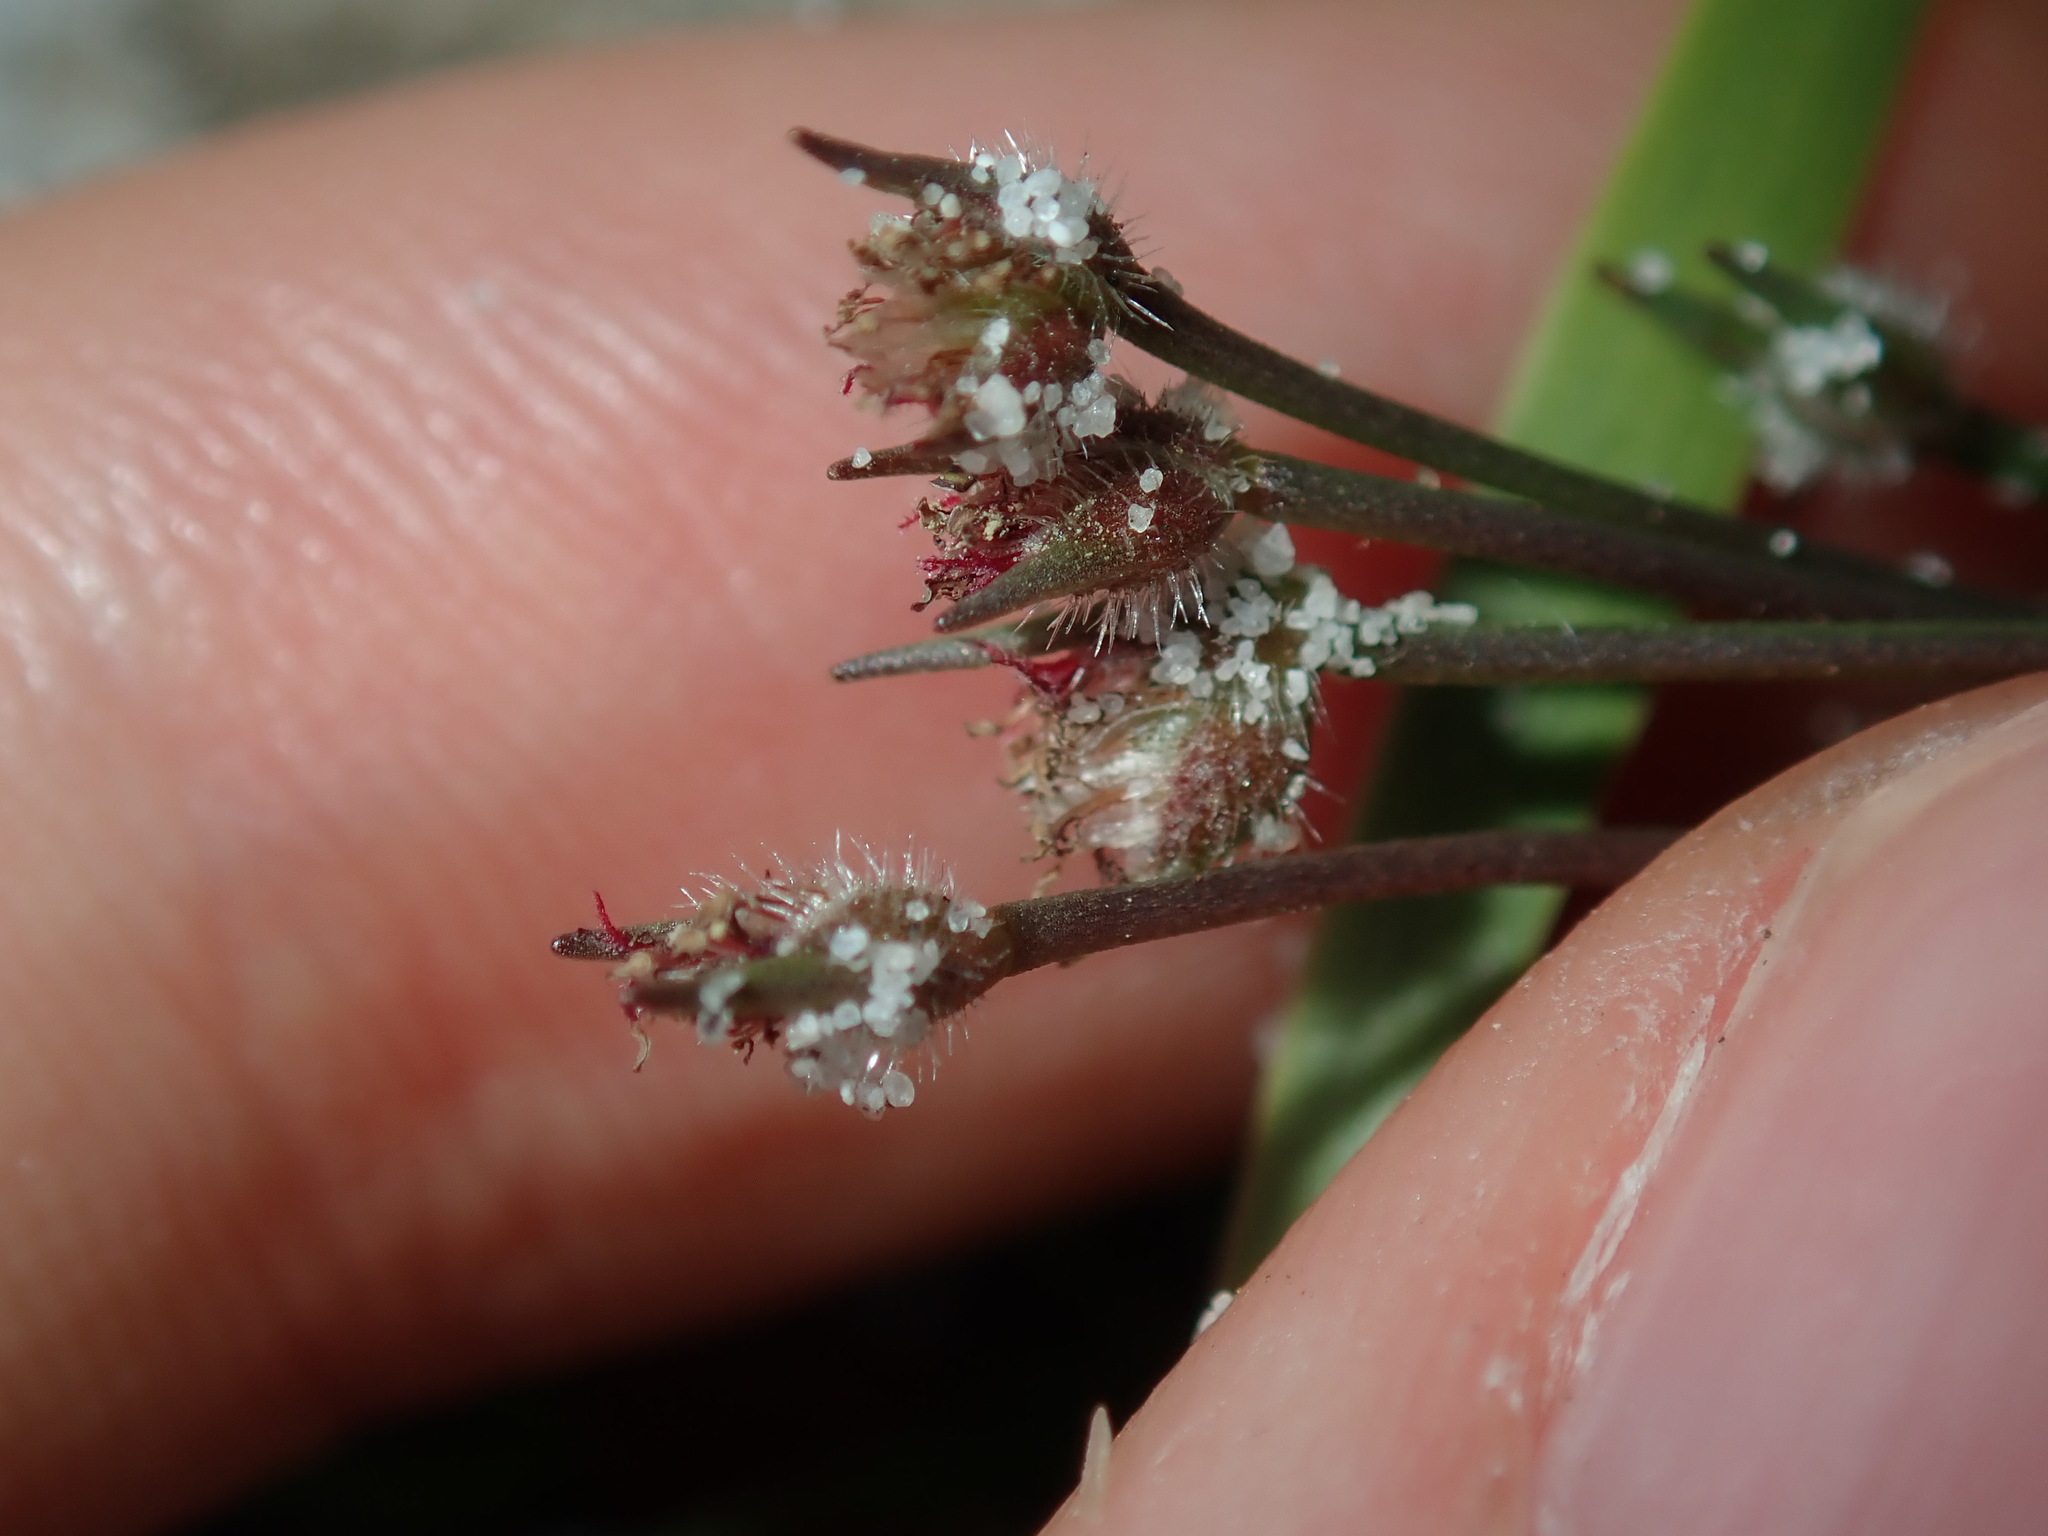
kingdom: Plantae
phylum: Tracheophyta
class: Liliopsida
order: Poales
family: Restionaceae
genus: Centrolepis
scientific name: Centrolepis strigosa
